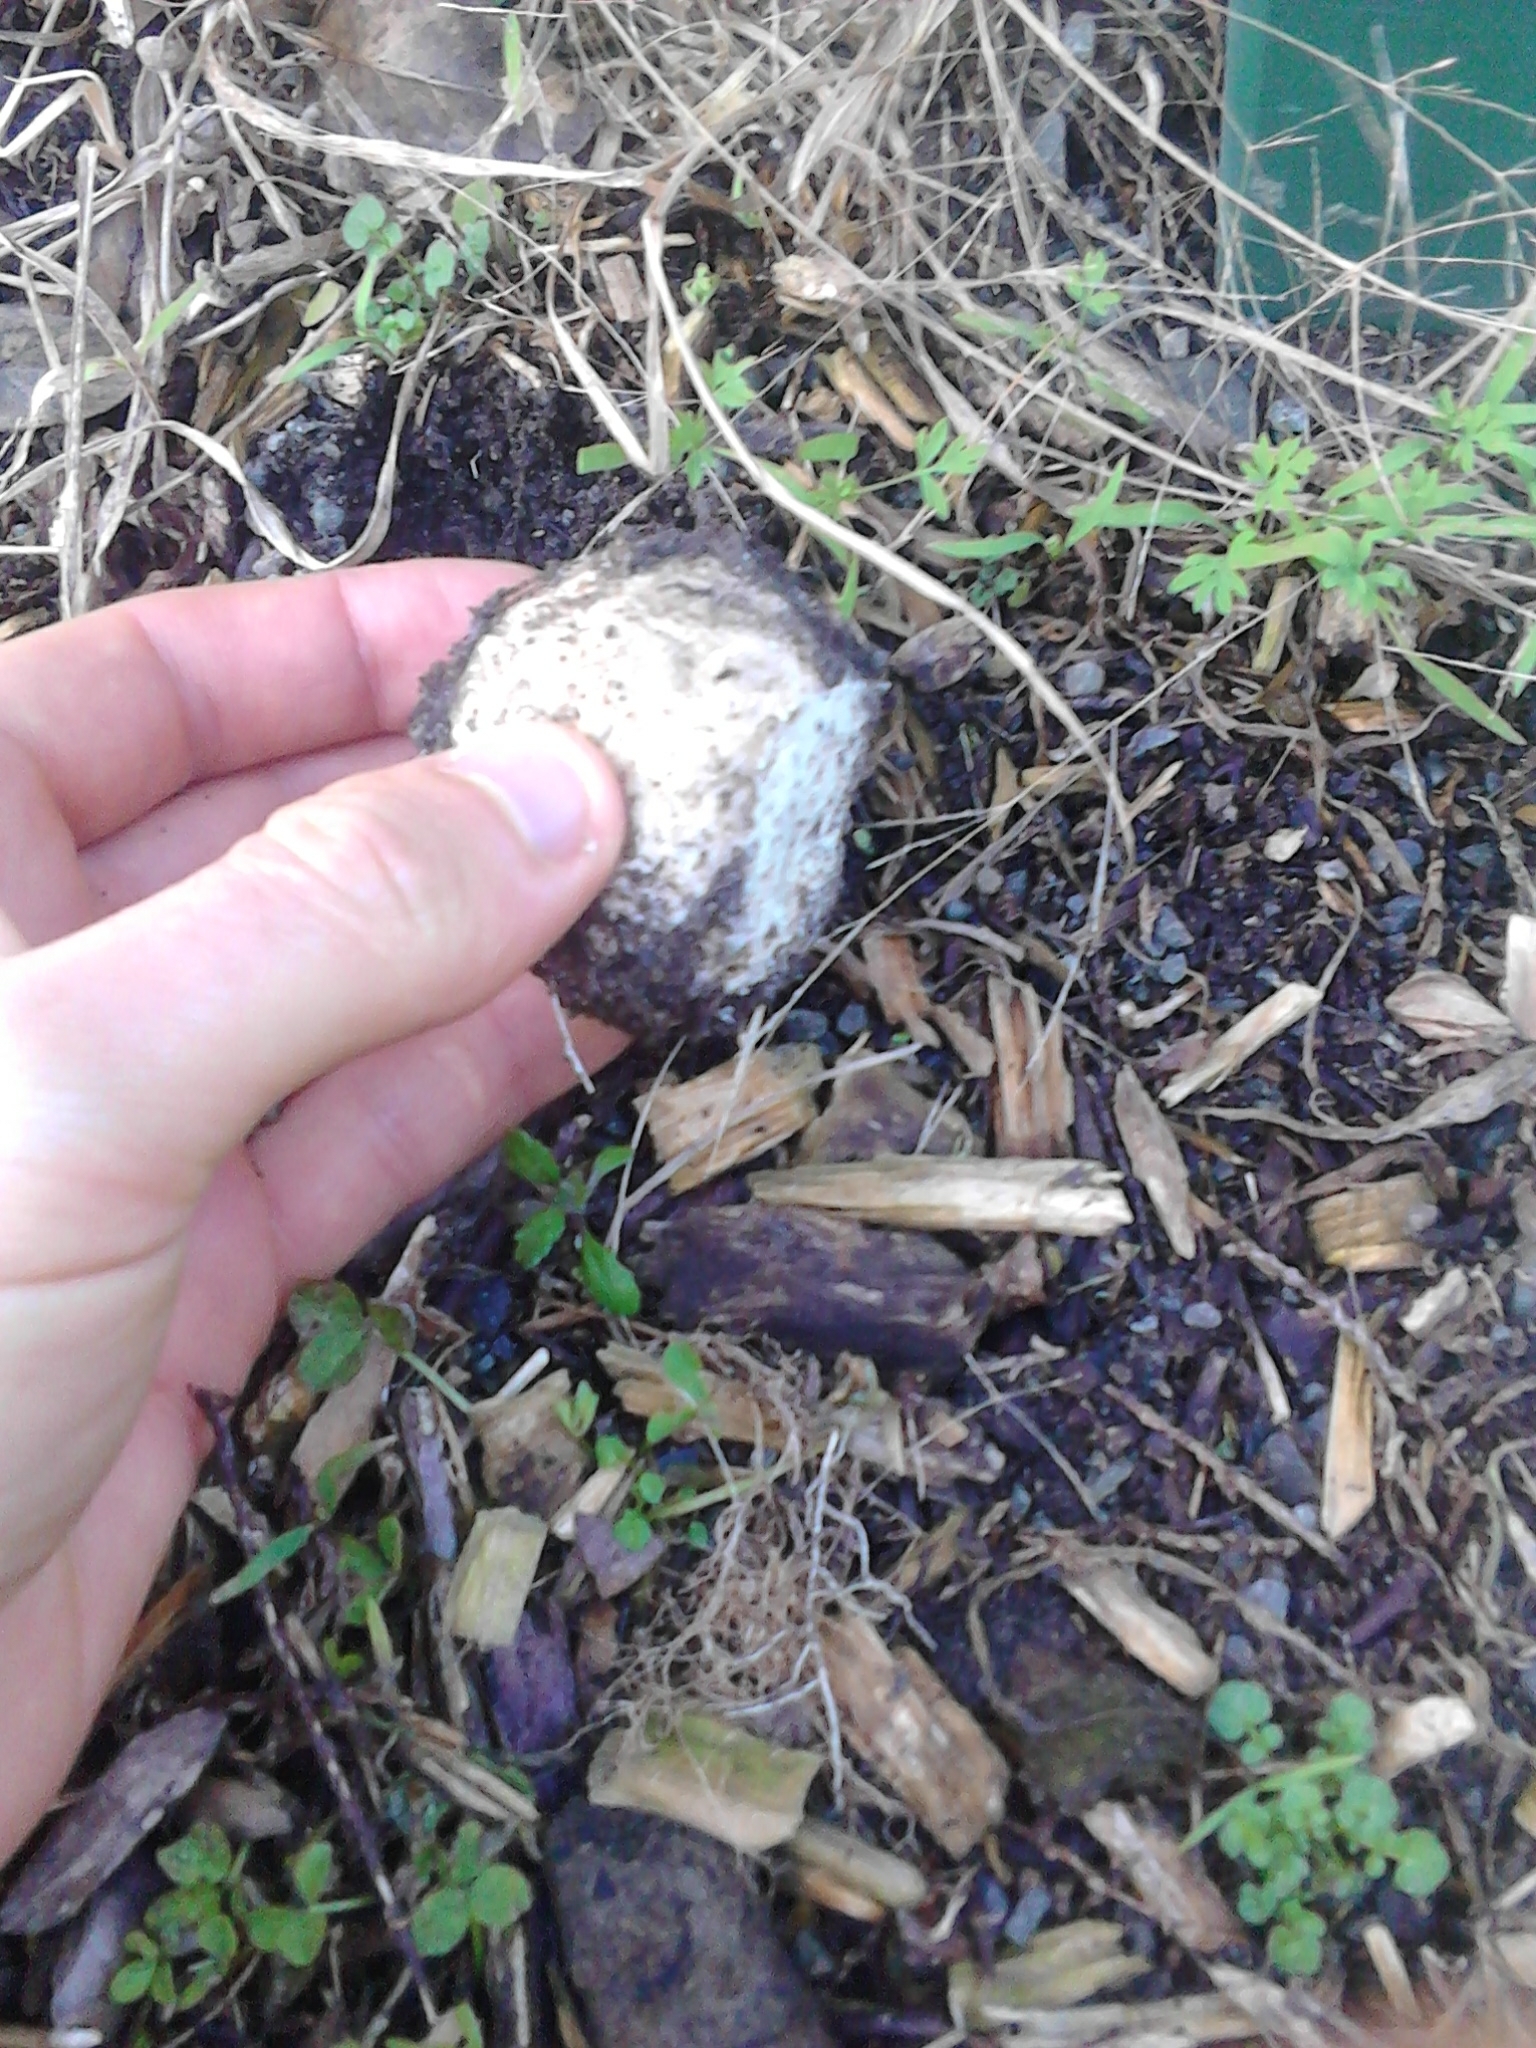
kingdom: Fungi
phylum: Basidiomycota
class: Agaricomycetes
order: Phallales
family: Phallaceae
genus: Ileodictyon
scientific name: Ileodictyon cibarium
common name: Basket fungus
